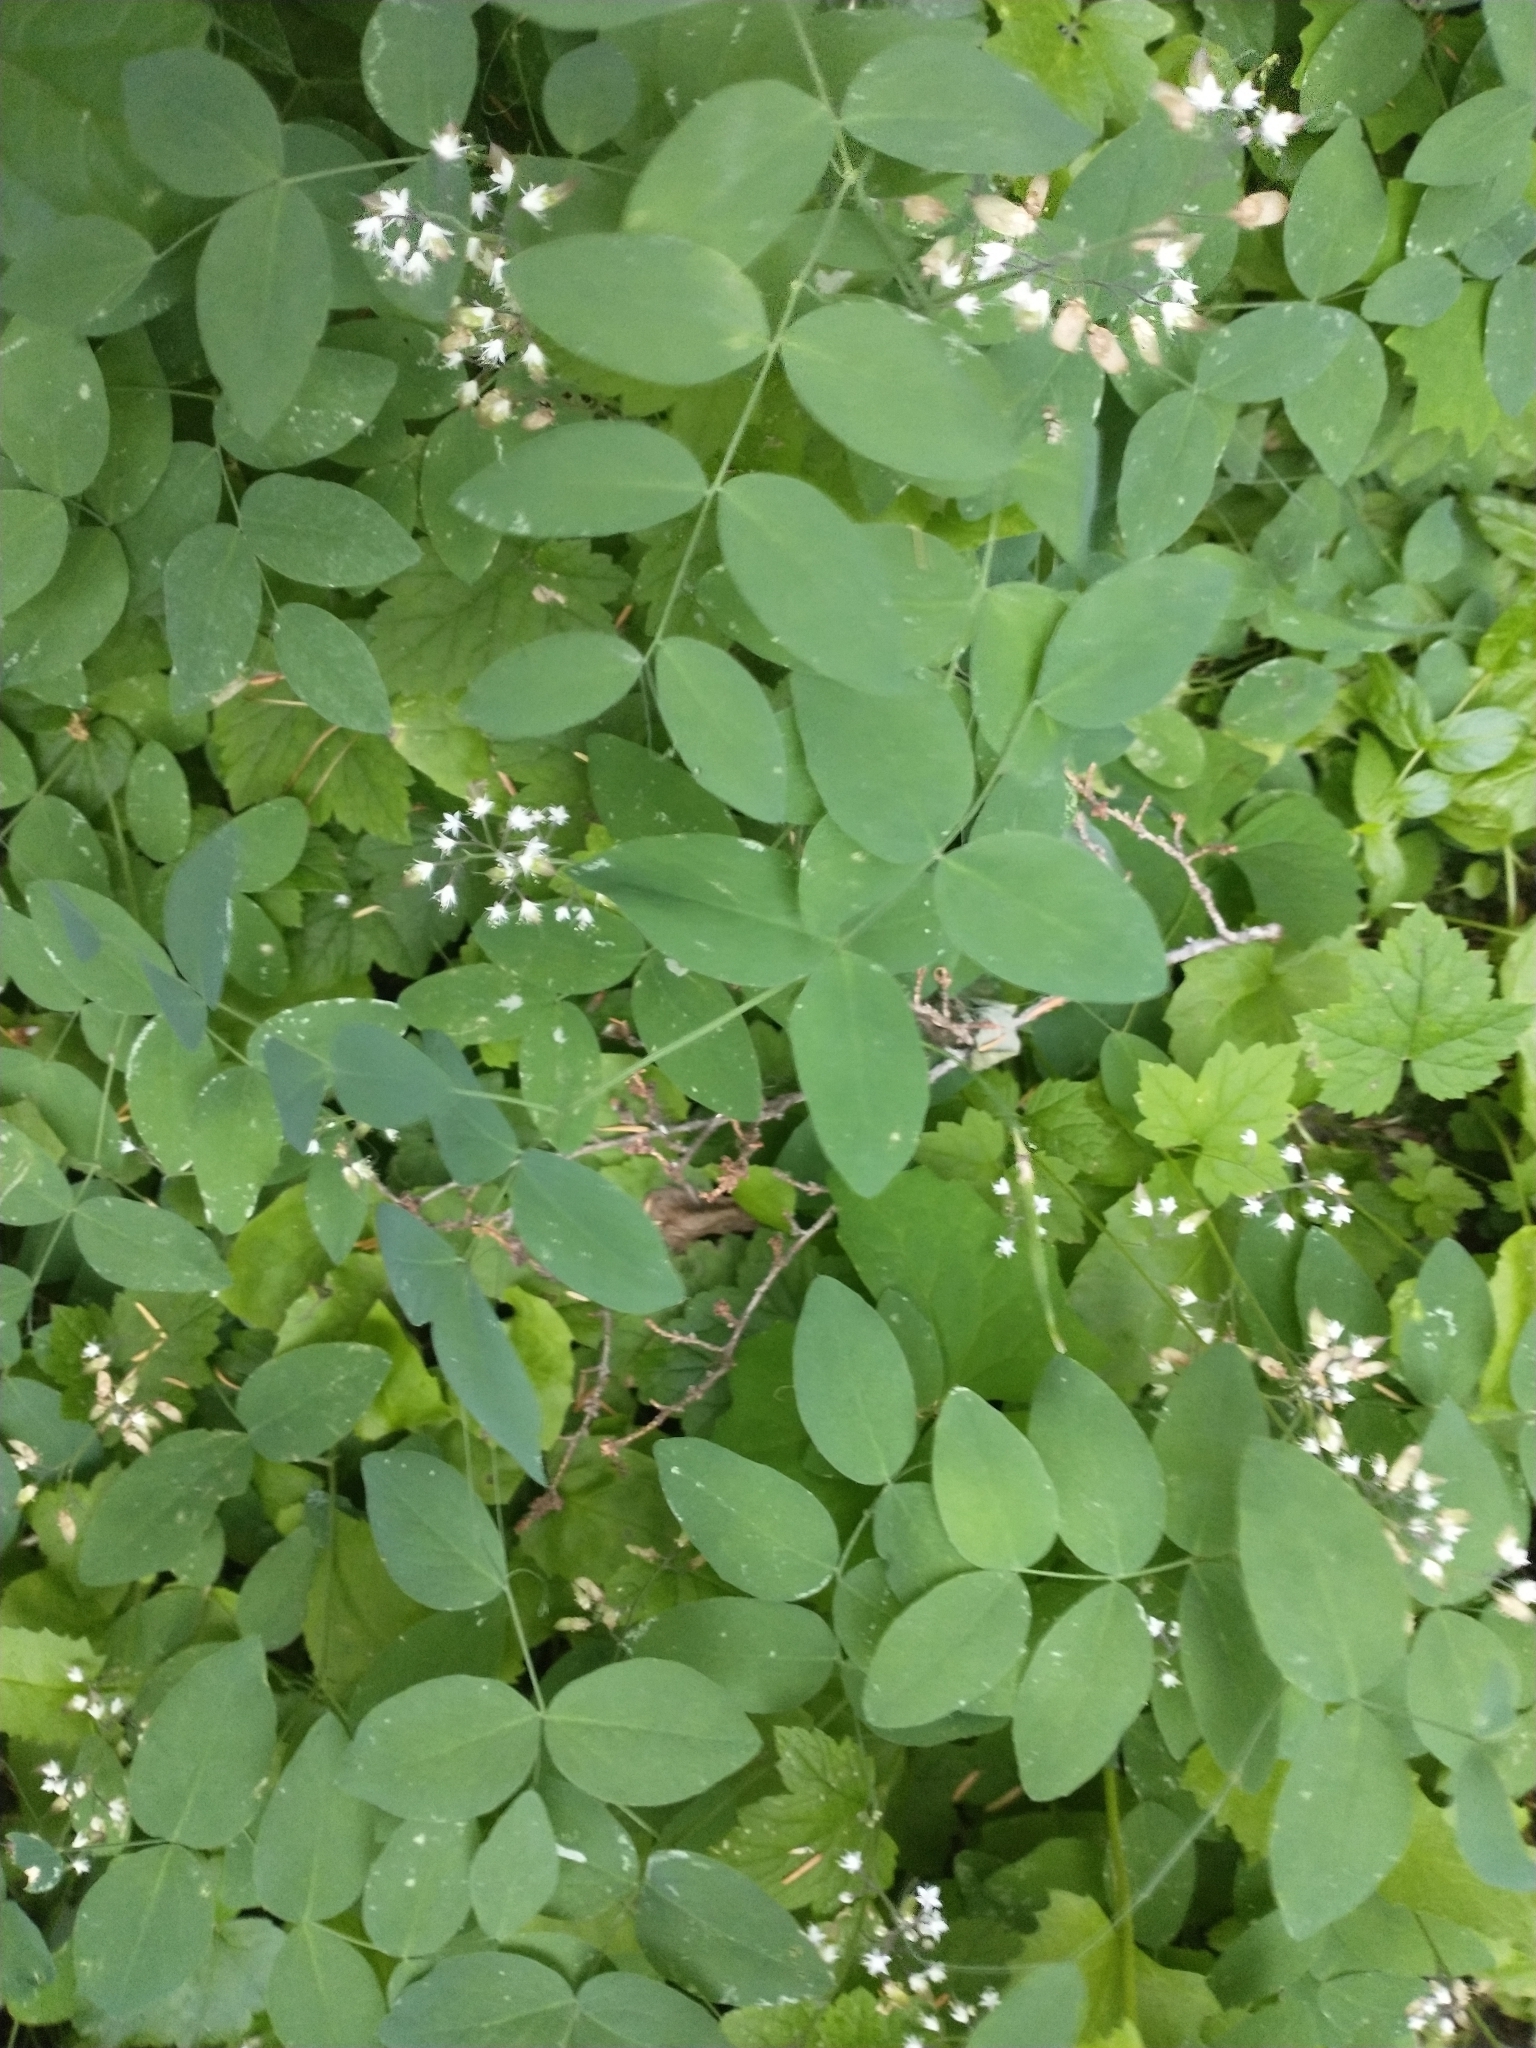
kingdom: Plantae
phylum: Tracheophyta
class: Magnoliopsida
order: Saxifragales
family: Saxifragaceae
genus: Tiarella
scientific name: Tiarella trifoliata
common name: Sugar-scoop
